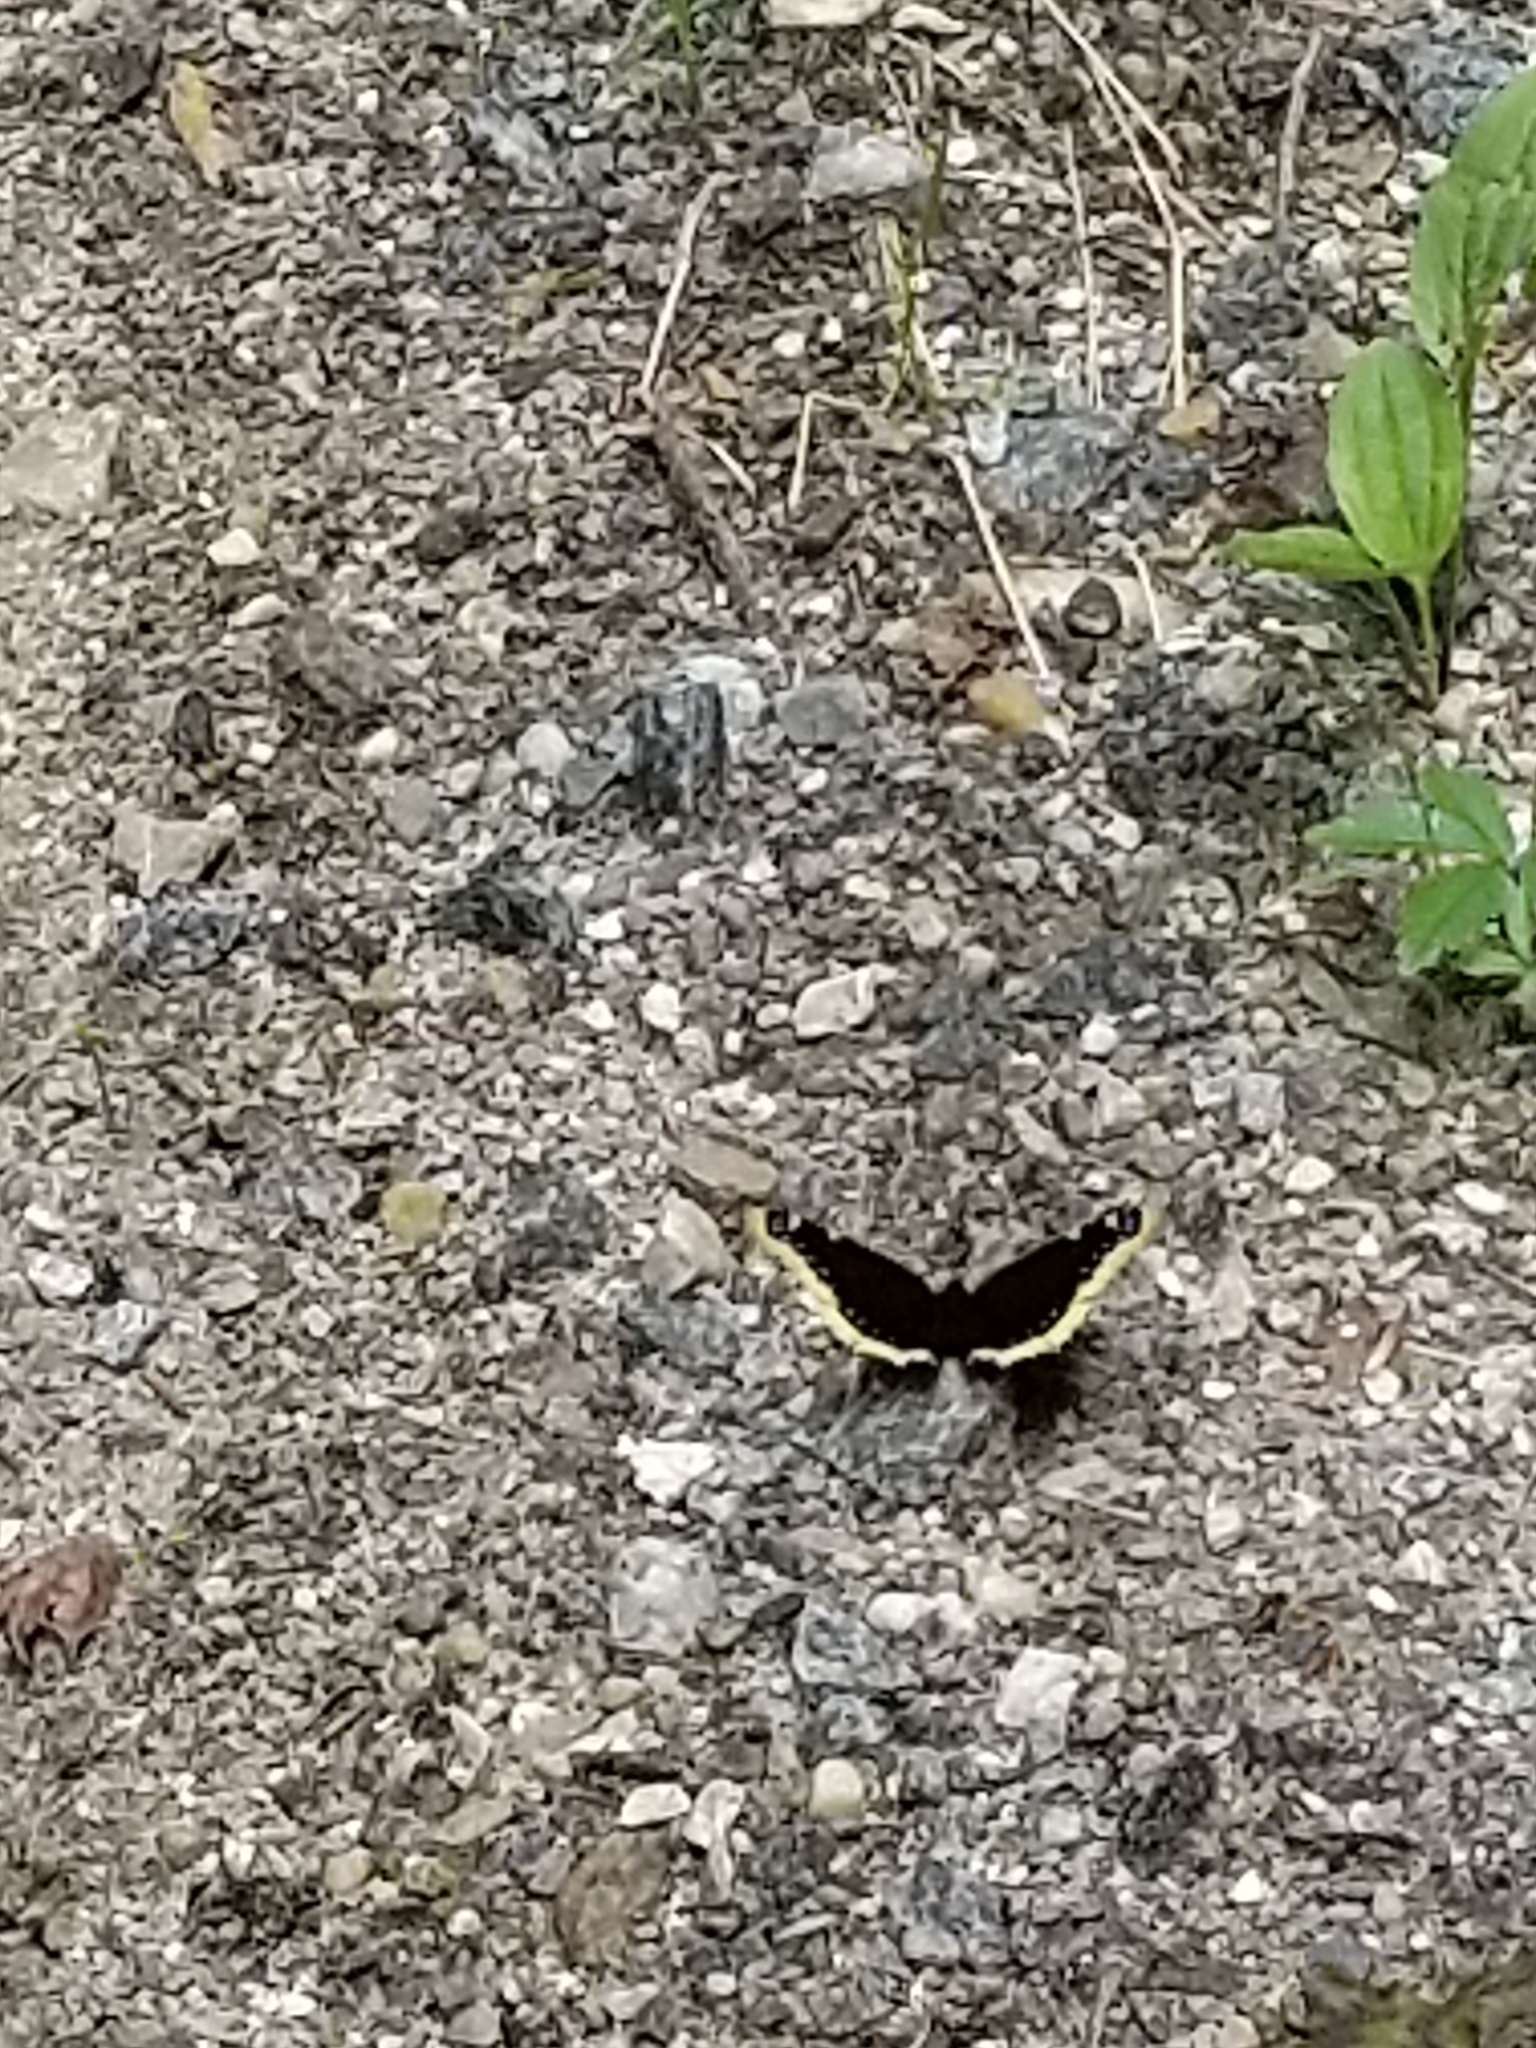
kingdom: Animalia
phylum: Arthropoda
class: Insecta
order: Lepidoptera
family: Nymphalidae
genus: Nymphalis
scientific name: Nymphalis antiopa
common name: Camberwell beauty
